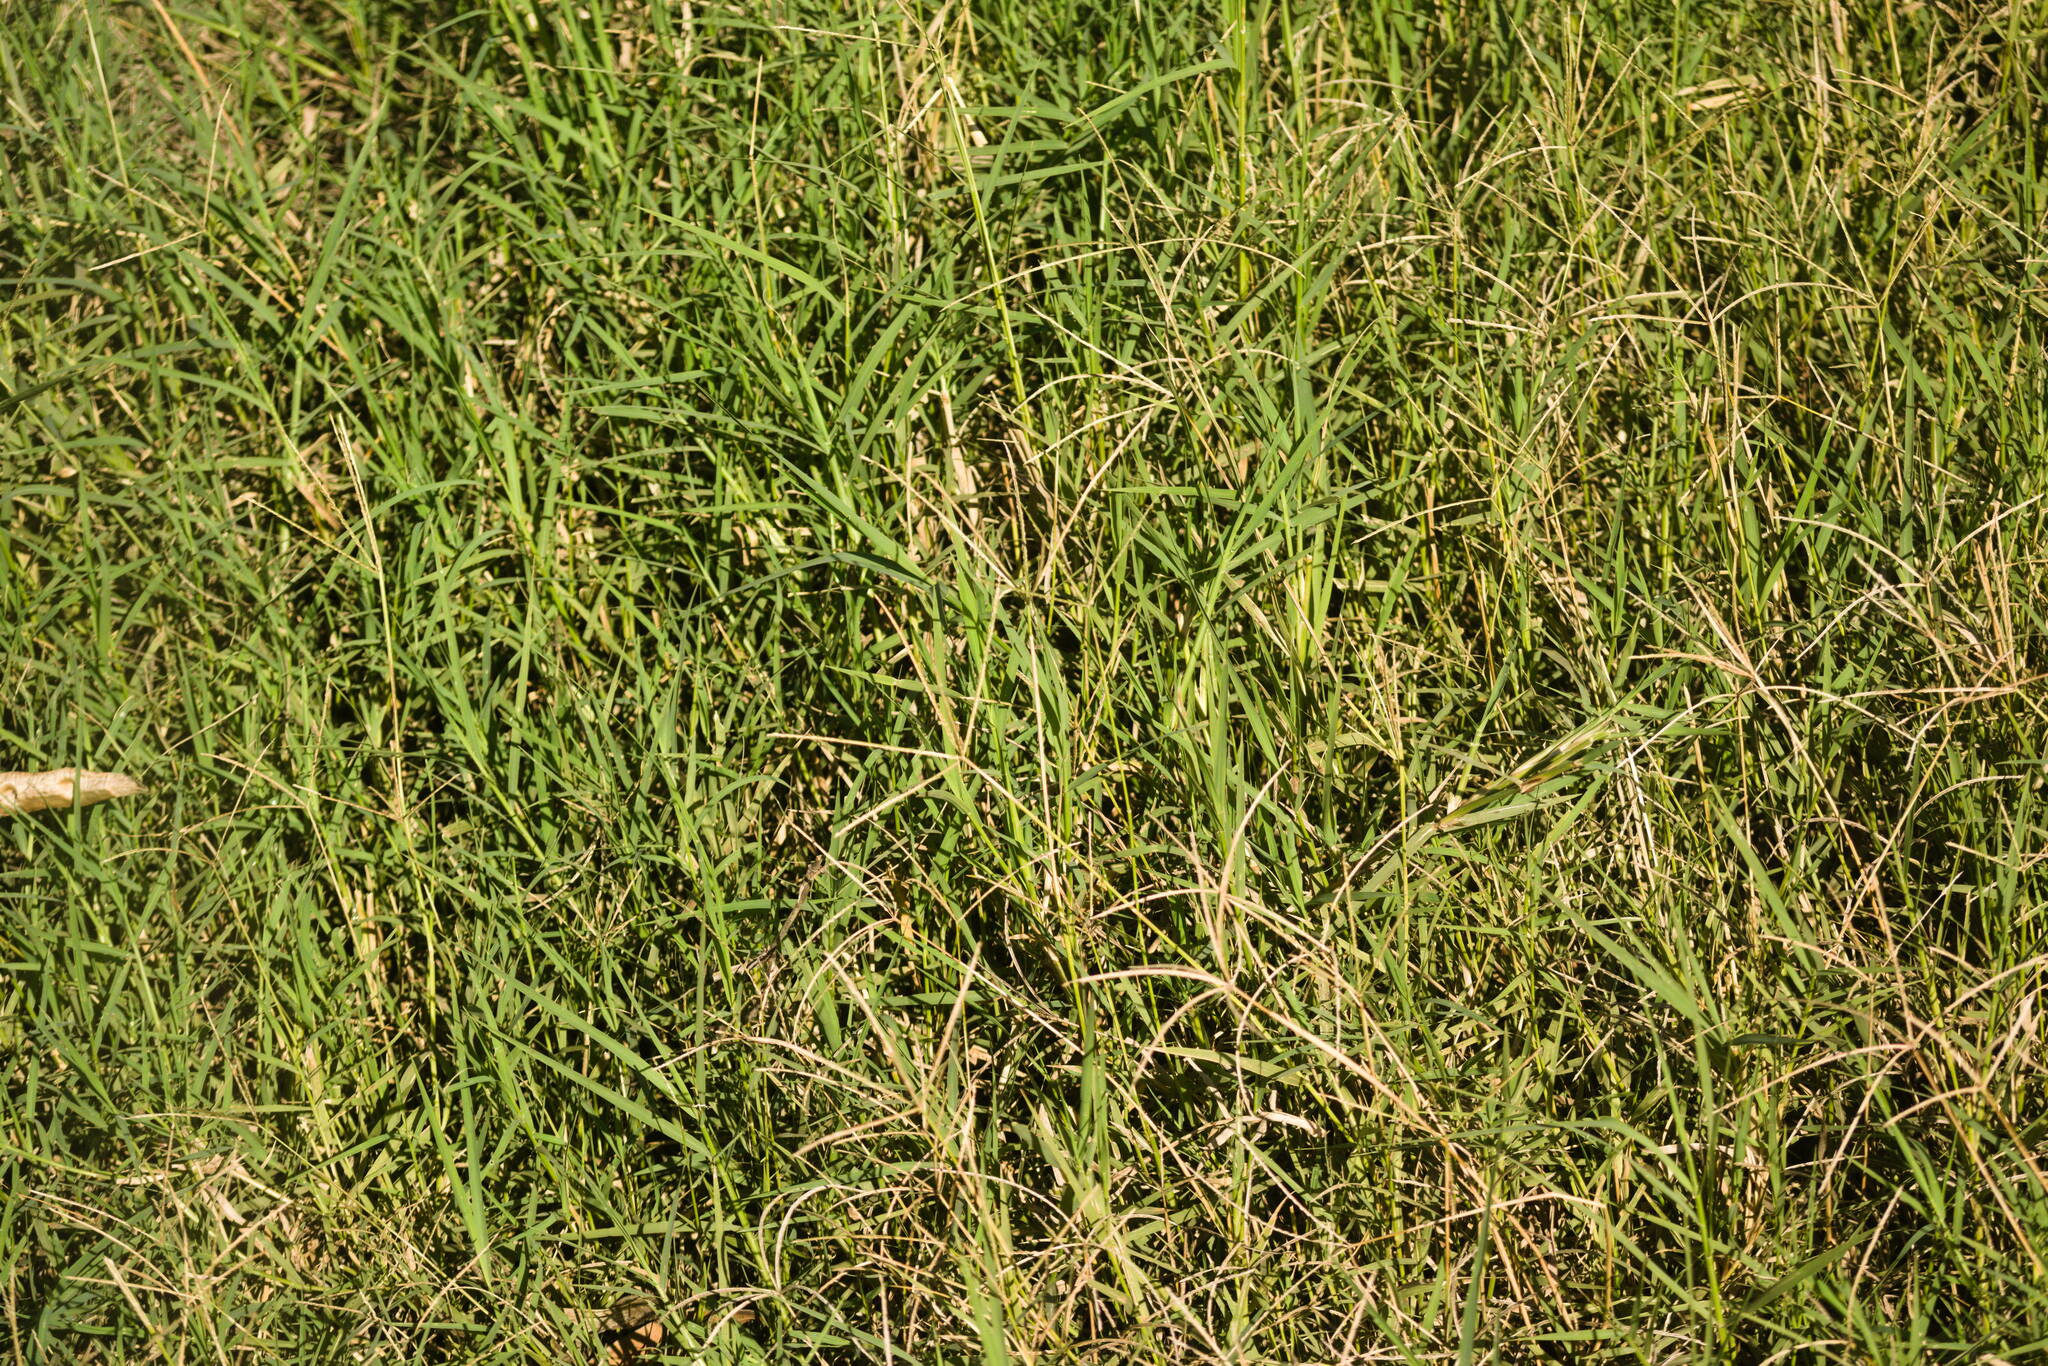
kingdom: Plantae
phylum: Tracheophyta
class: Liliopsida
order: Poales
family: Poaceae
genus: Cynodon
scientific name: Cynodon dactylon
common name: Bermuda grass
